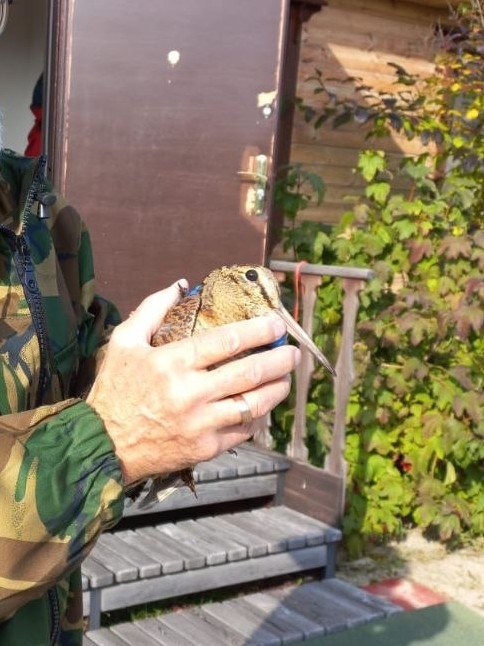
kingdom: Animalia
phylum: Chordata
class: Aves
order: Charadriiformes
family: Scolopacidae
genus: Scolopax
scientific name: Scolopax rusticola
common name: Eurasian woodcock
